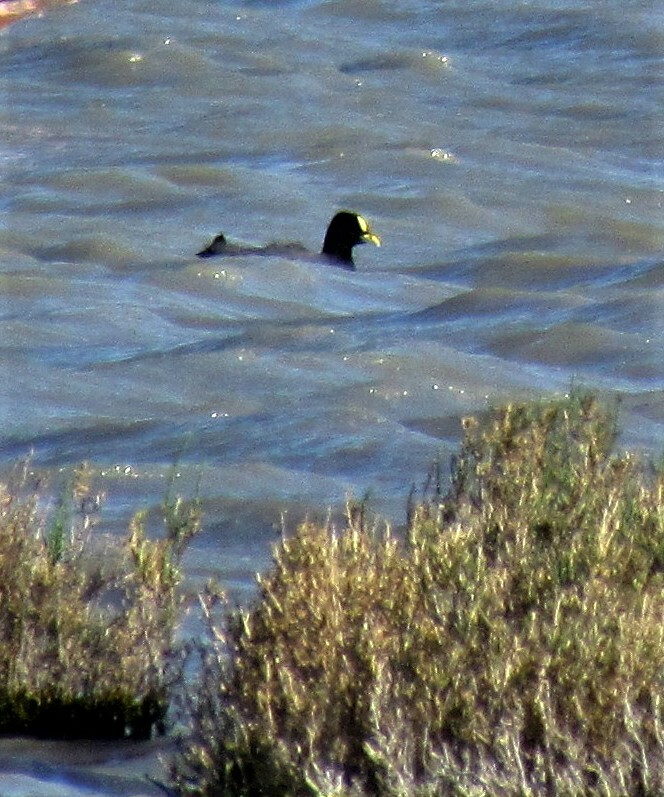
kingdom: Animalia
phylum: Chordata
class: Aves
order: Gruiformes
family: Rallidae
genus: Fulica
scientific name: Fulica armillata
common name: Red-gartered coot
